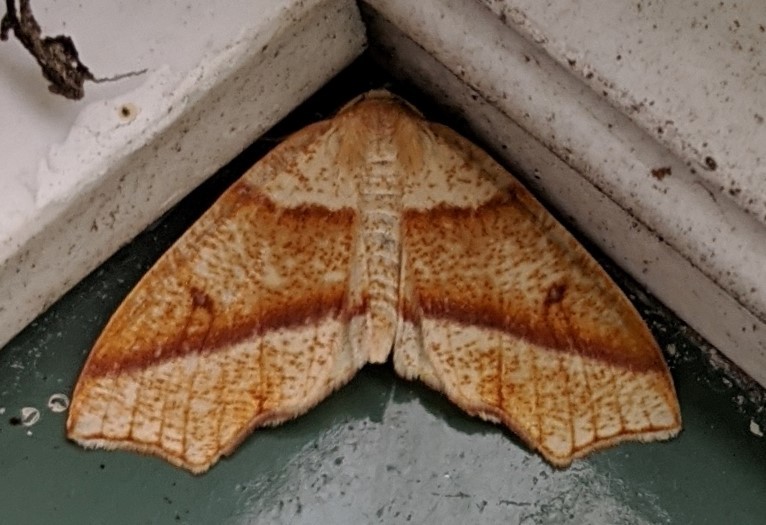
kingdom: Animalia
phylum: Arthropoda
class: Insecta
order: Lepidoptera
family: Geometridae
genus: Plagodis
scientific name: Plagodis alcoolaria
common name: Hollow-spotted plagodis
